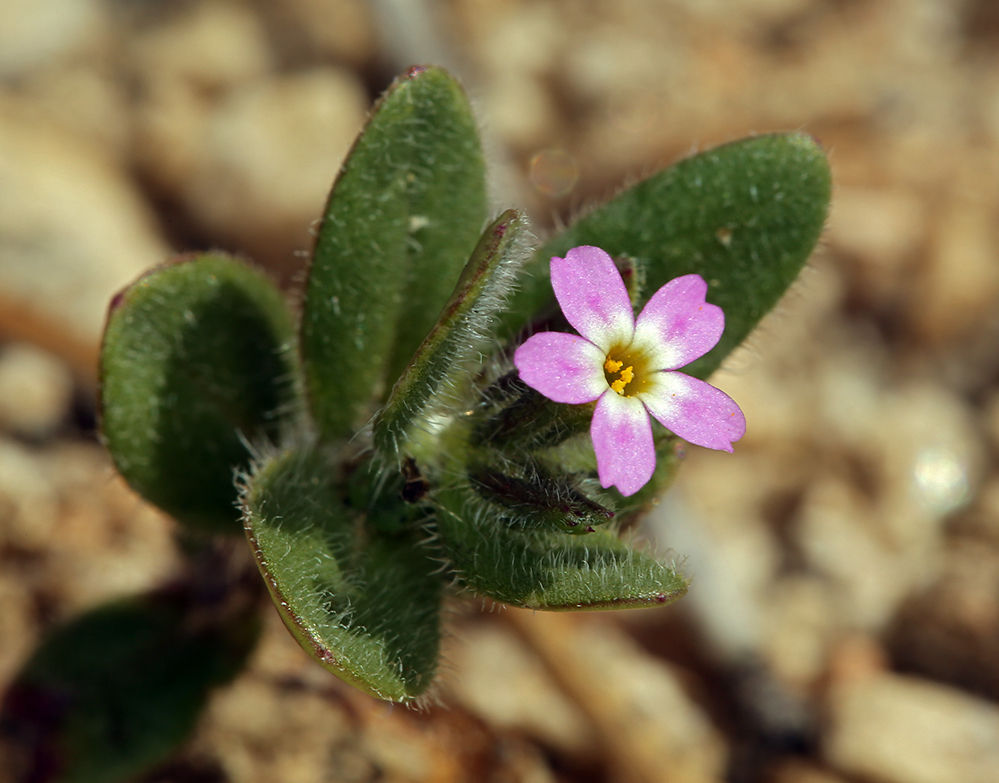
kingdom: Plantae
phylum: Tracheophyta
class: Magnoliopsida
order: Ericales
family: Polemoniaceae
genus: Phlox
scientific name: Phlox gracilis
